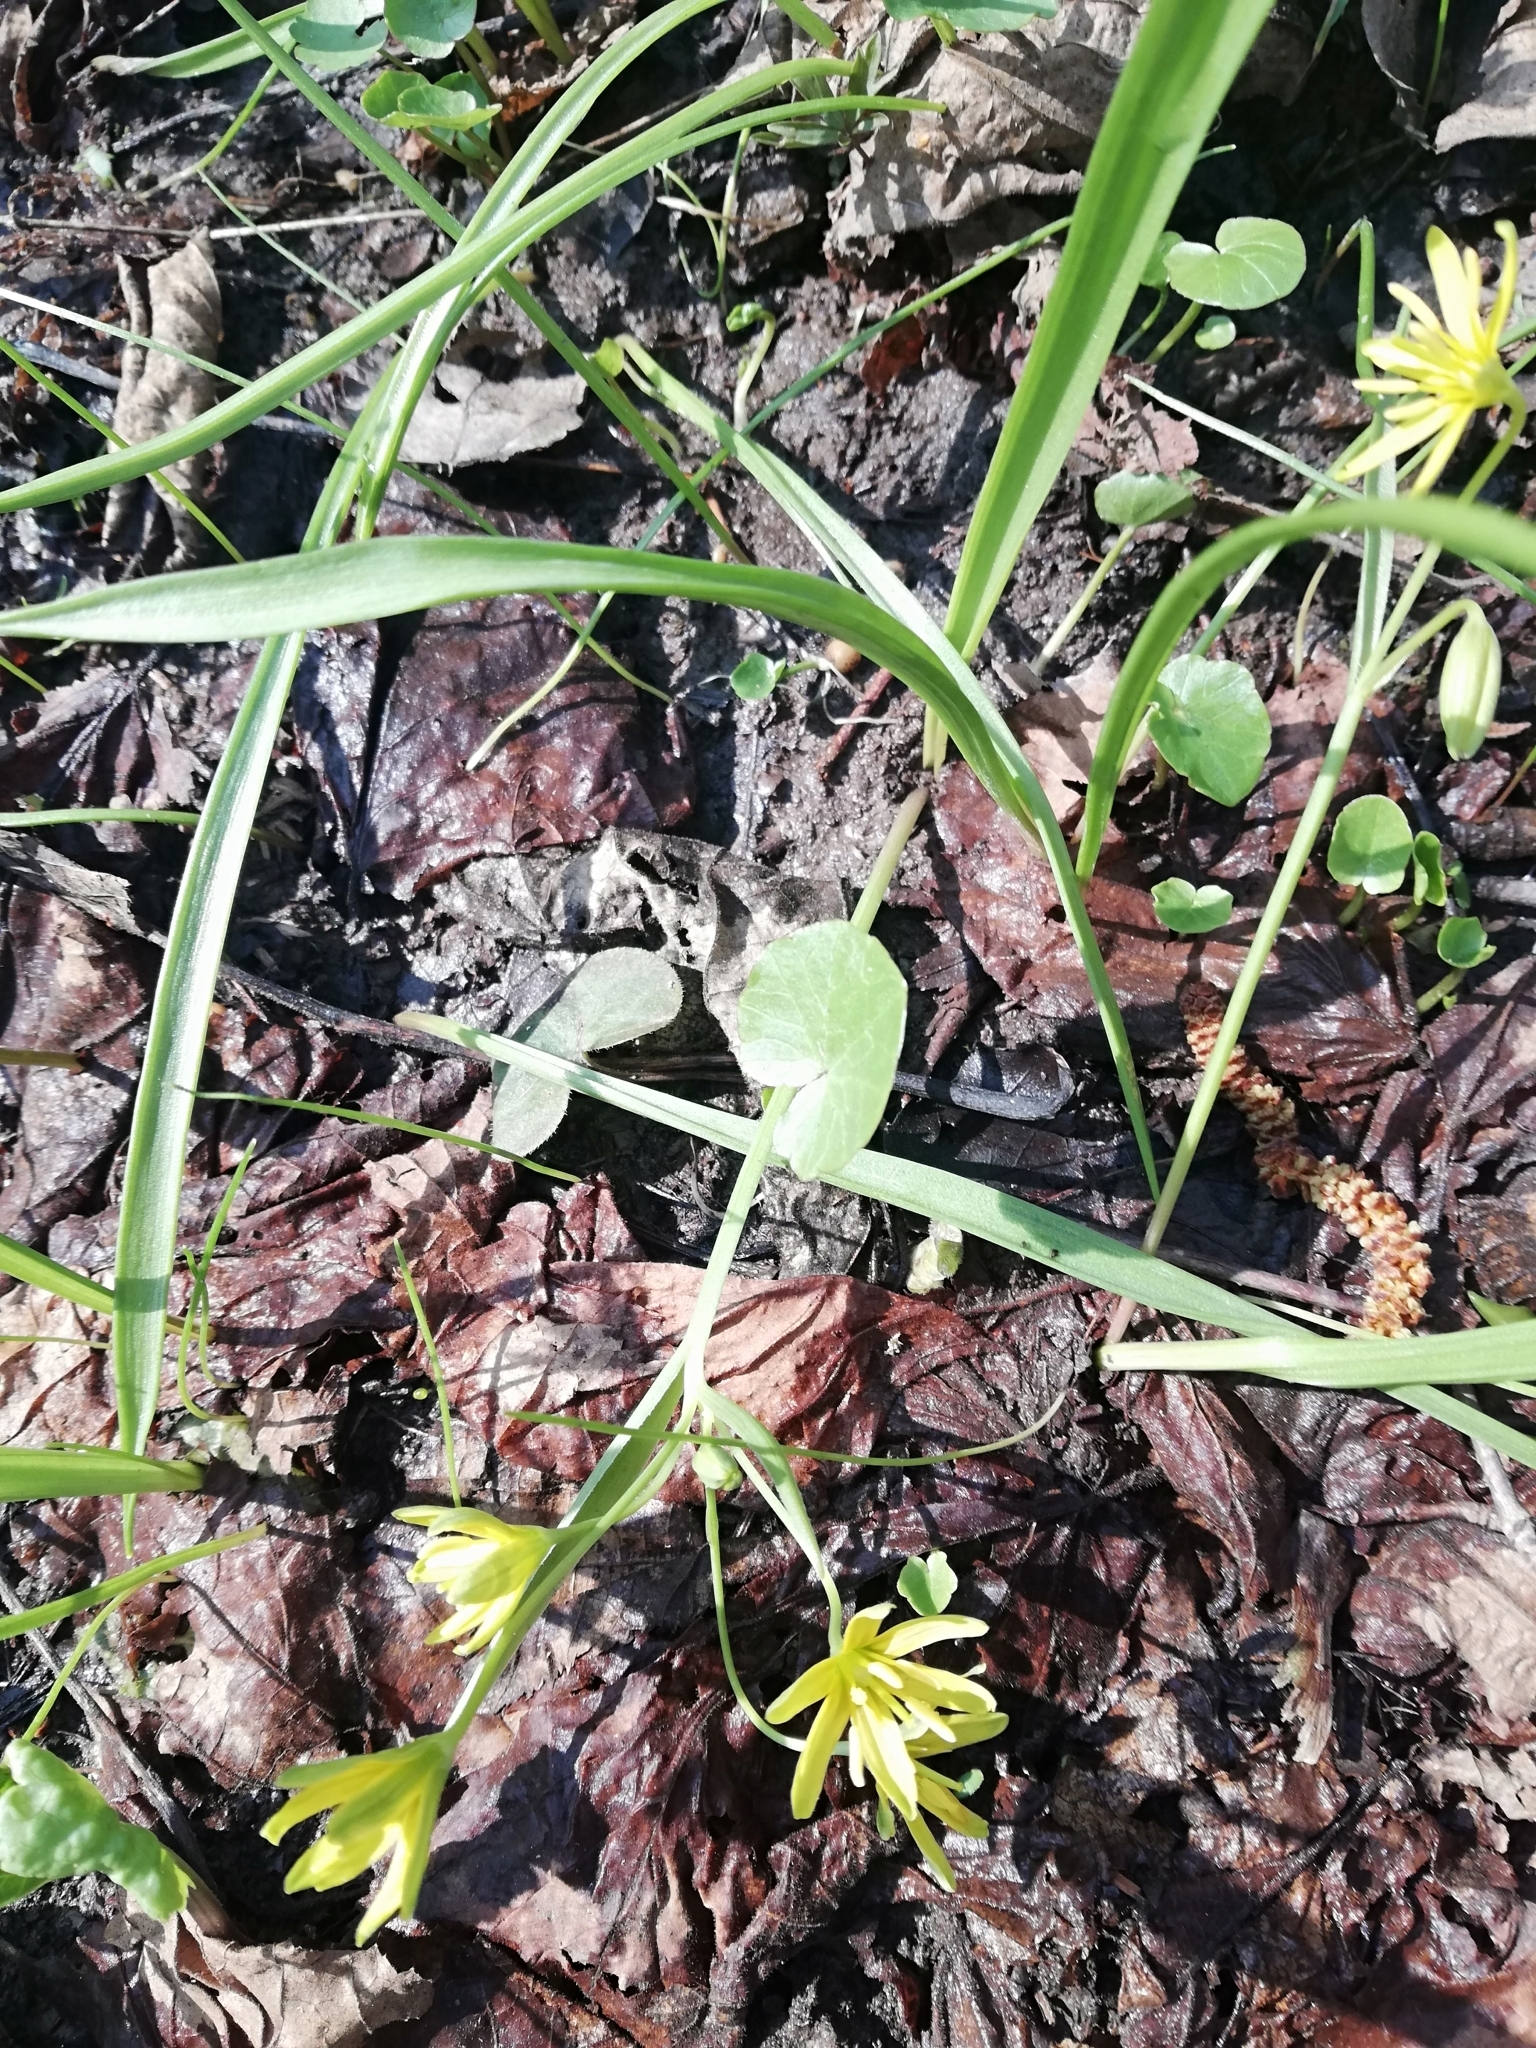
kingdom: Plantae
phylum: Tracheophyta
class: Liliopsida
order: Liliales
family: Liliaceae
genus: Gagea
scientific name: Gagea lutea
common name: Yellow star-of-bethlehem
